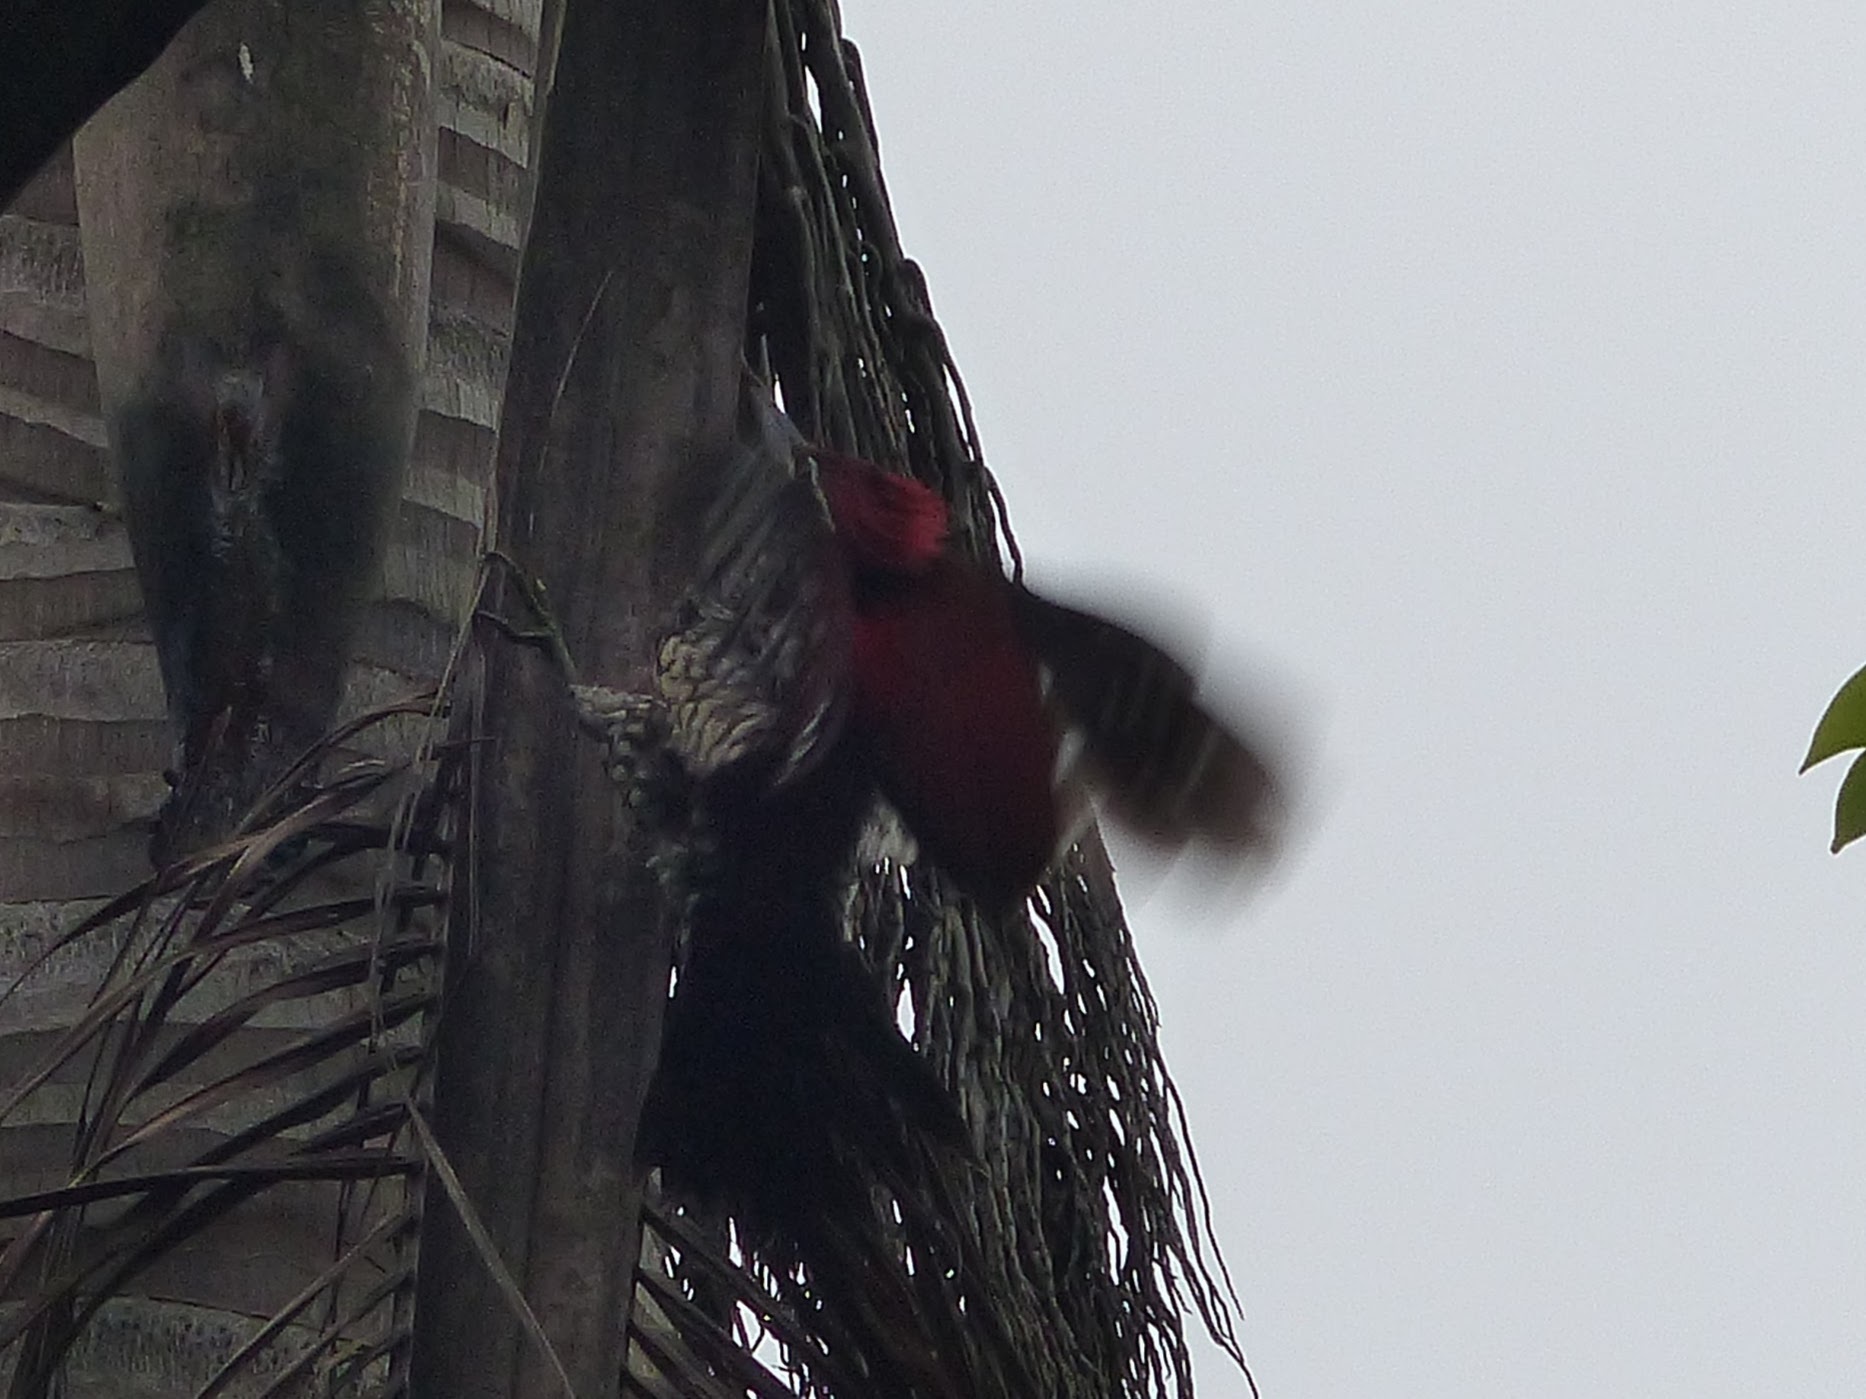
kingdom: Animalia
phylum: Chordata
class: Aves
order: Piciformes
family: Picidae
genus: Dinopium
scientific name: Dinopium psarodes
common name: Red-backed flameback
